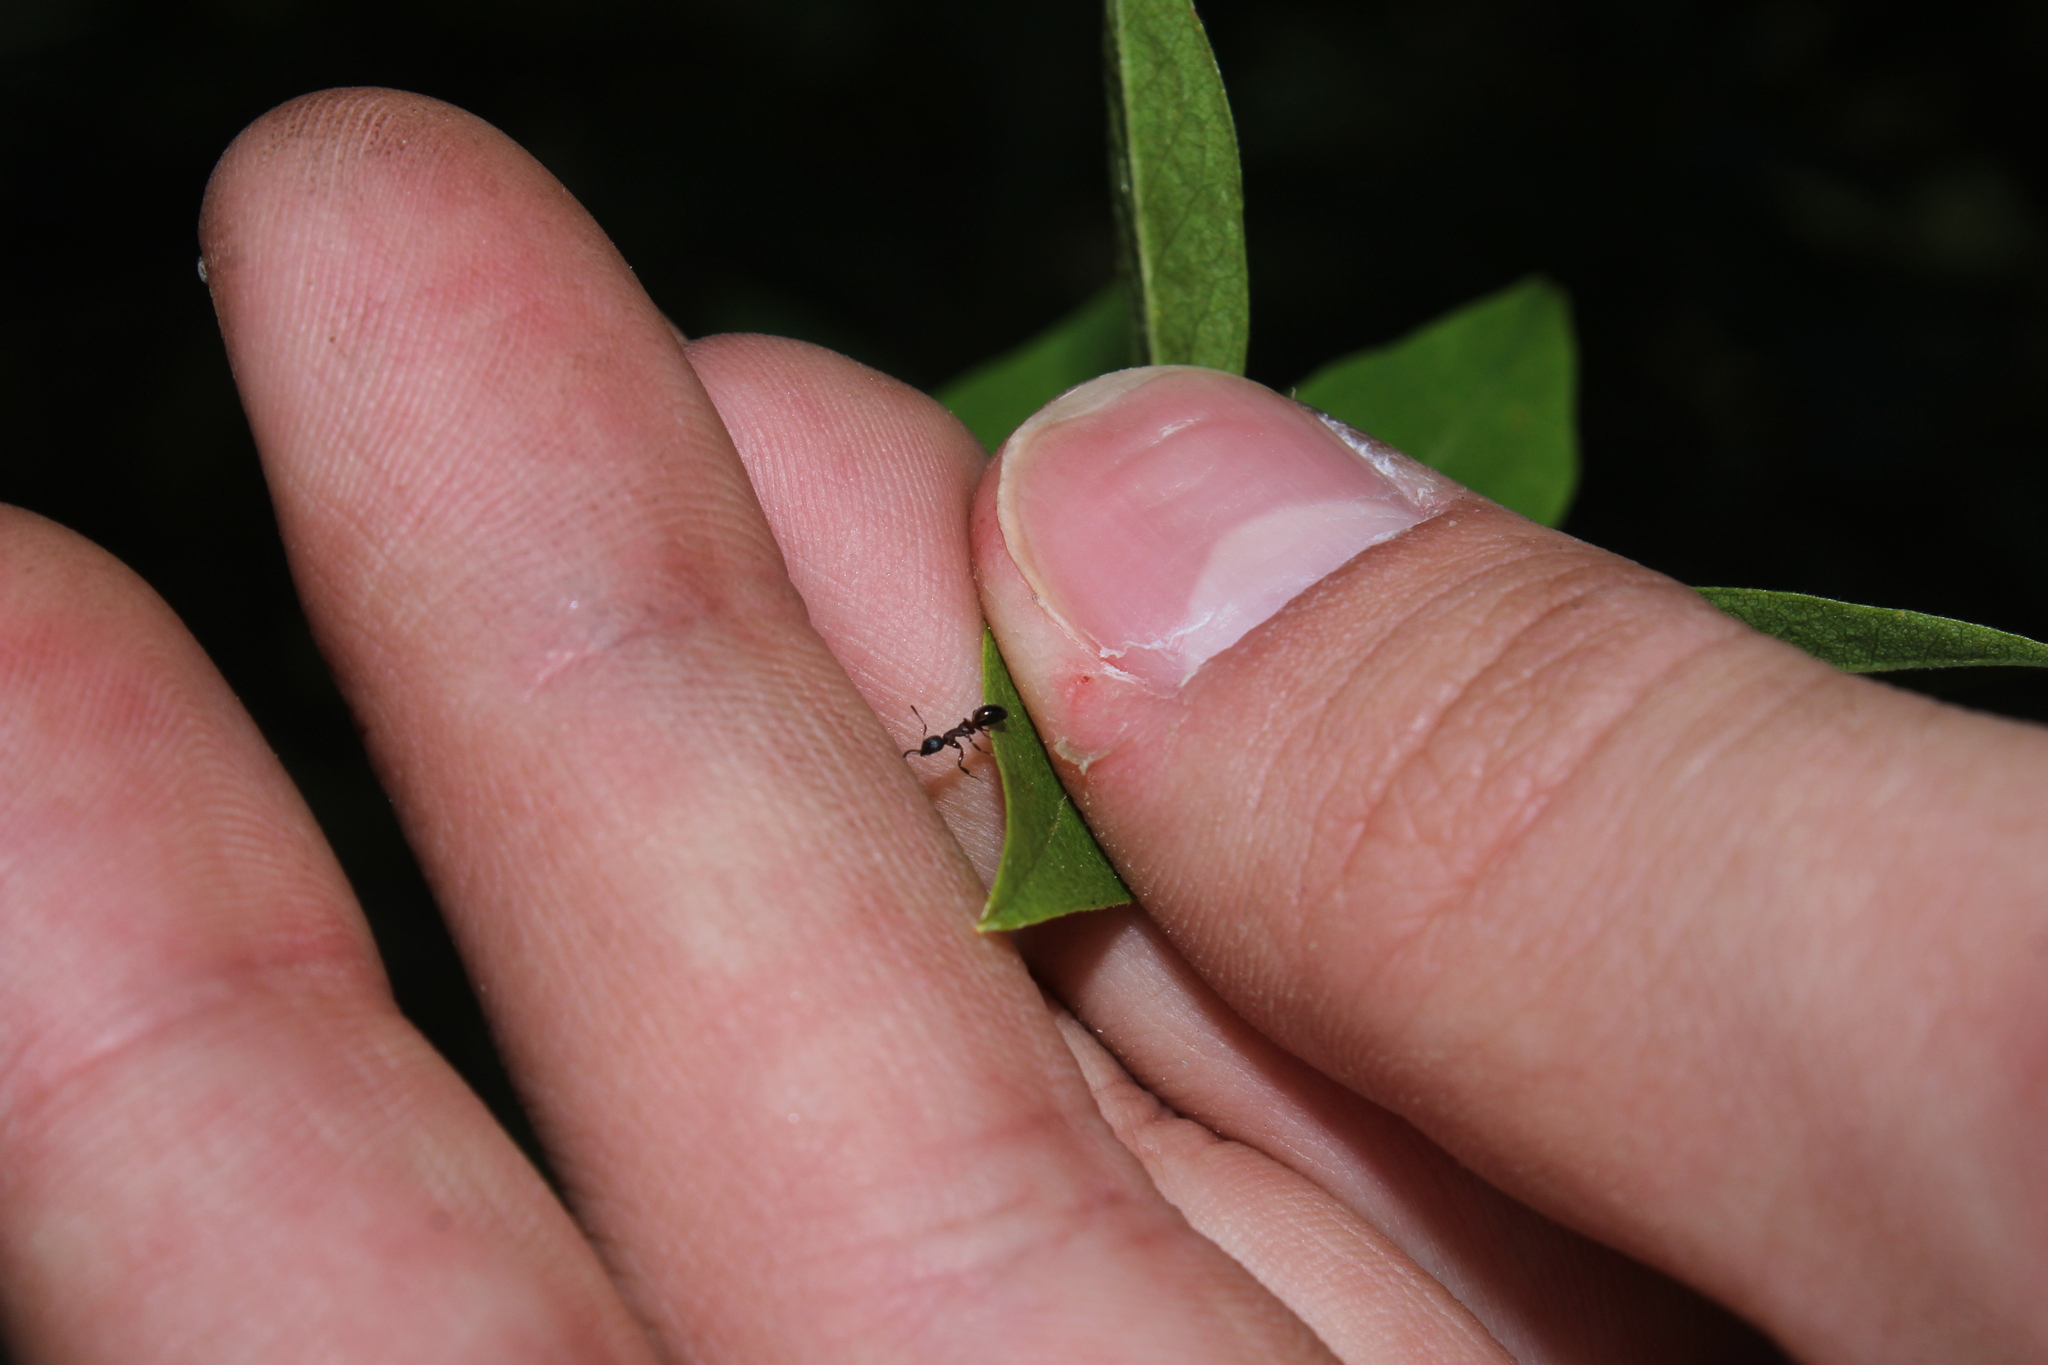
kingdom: Animalia
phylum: Arthropoda
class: Insecta
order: Hymenoptera
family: Formicidae
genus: Dolichoderus
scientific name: Dolichoderus plagiatus
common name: Mottled dolichoderus
